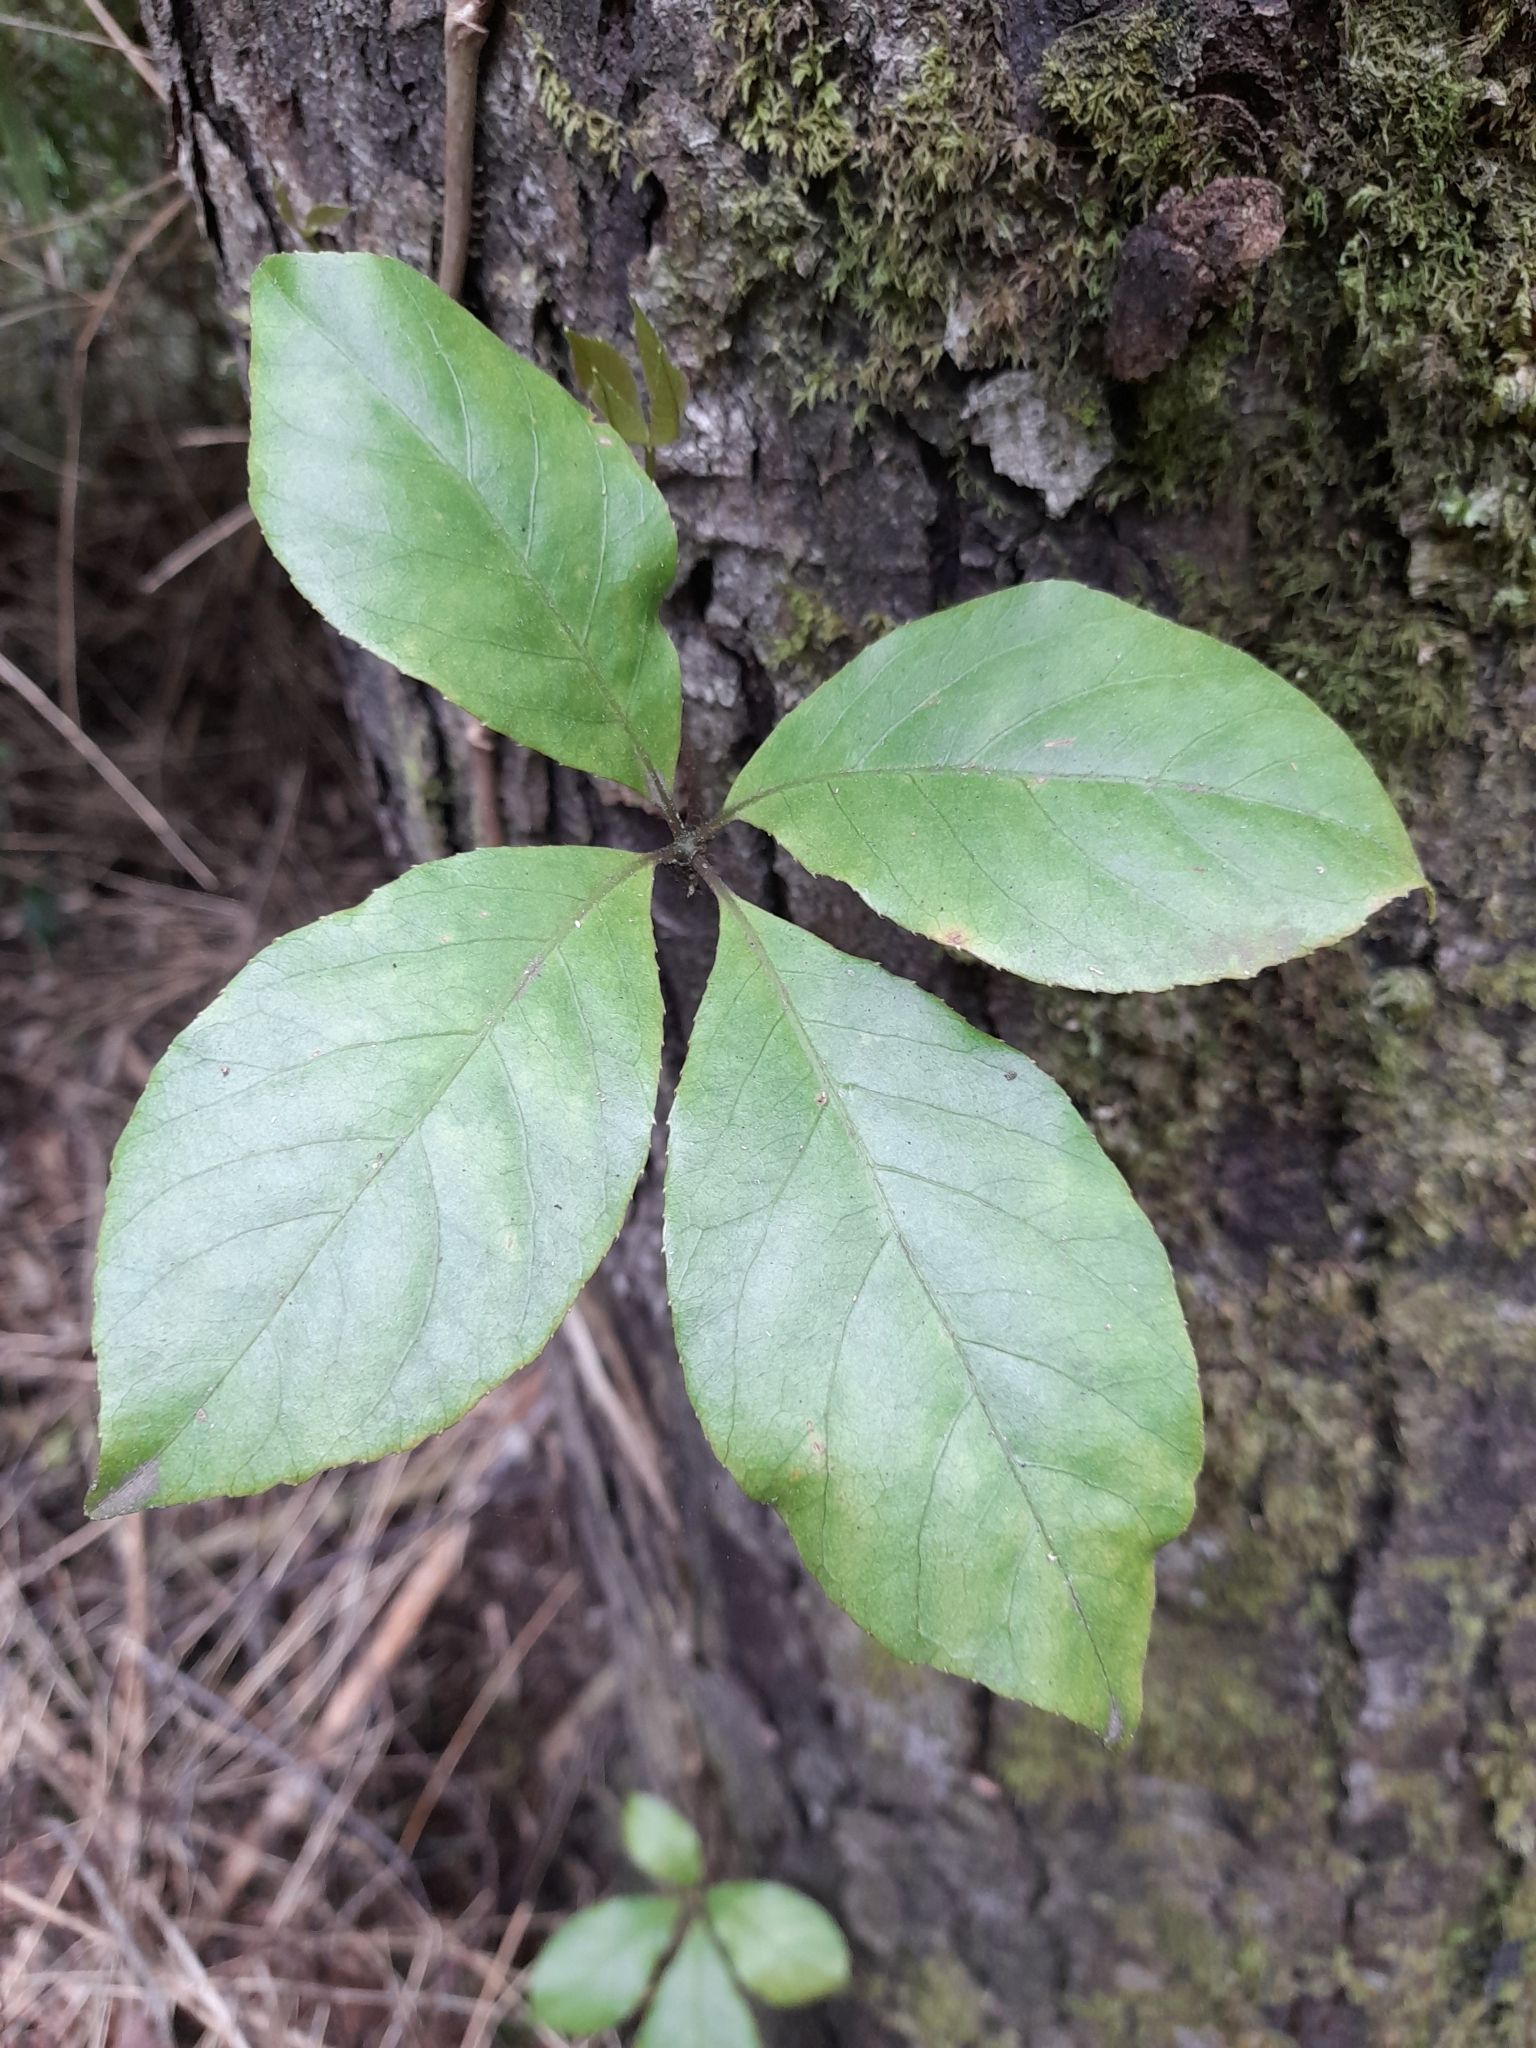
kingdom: Plantae
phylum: Tracheophyta
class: Magnoliopsida
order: Apiales
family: Araliaceae
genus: Raukaua
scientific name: Raukaua valdiviensis
